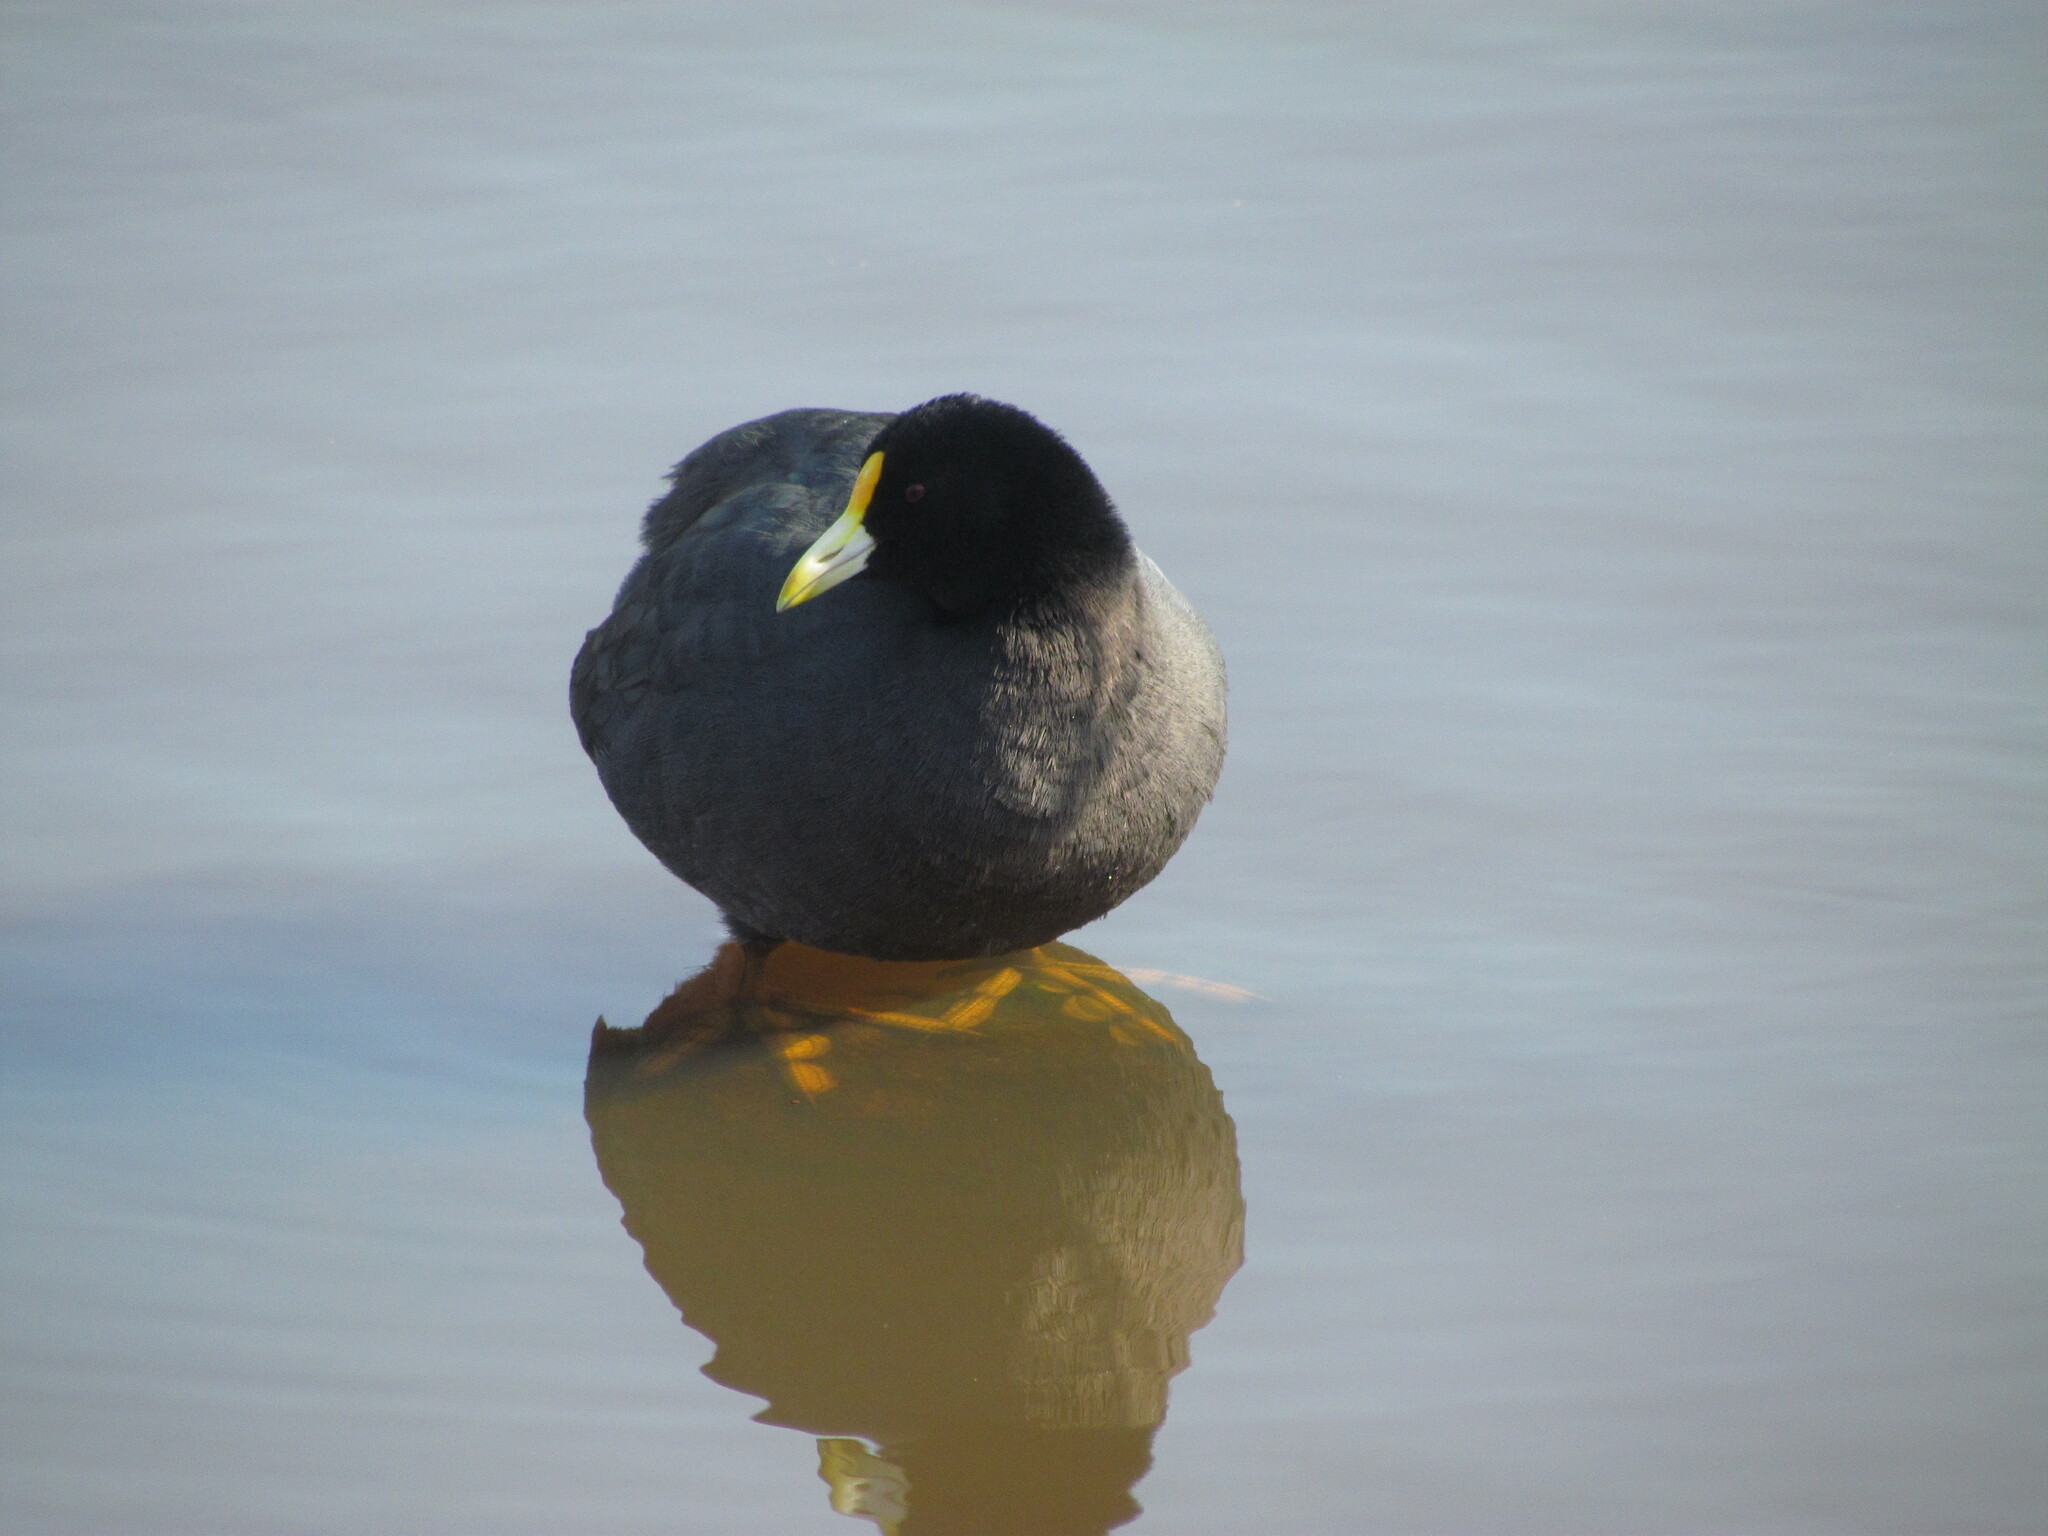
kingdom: Animalia
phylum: Chordata
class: Aves
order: Gruiformes
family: Rallidae
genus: Fulica
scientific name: Fulica leucoptera
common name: White-winged coot
